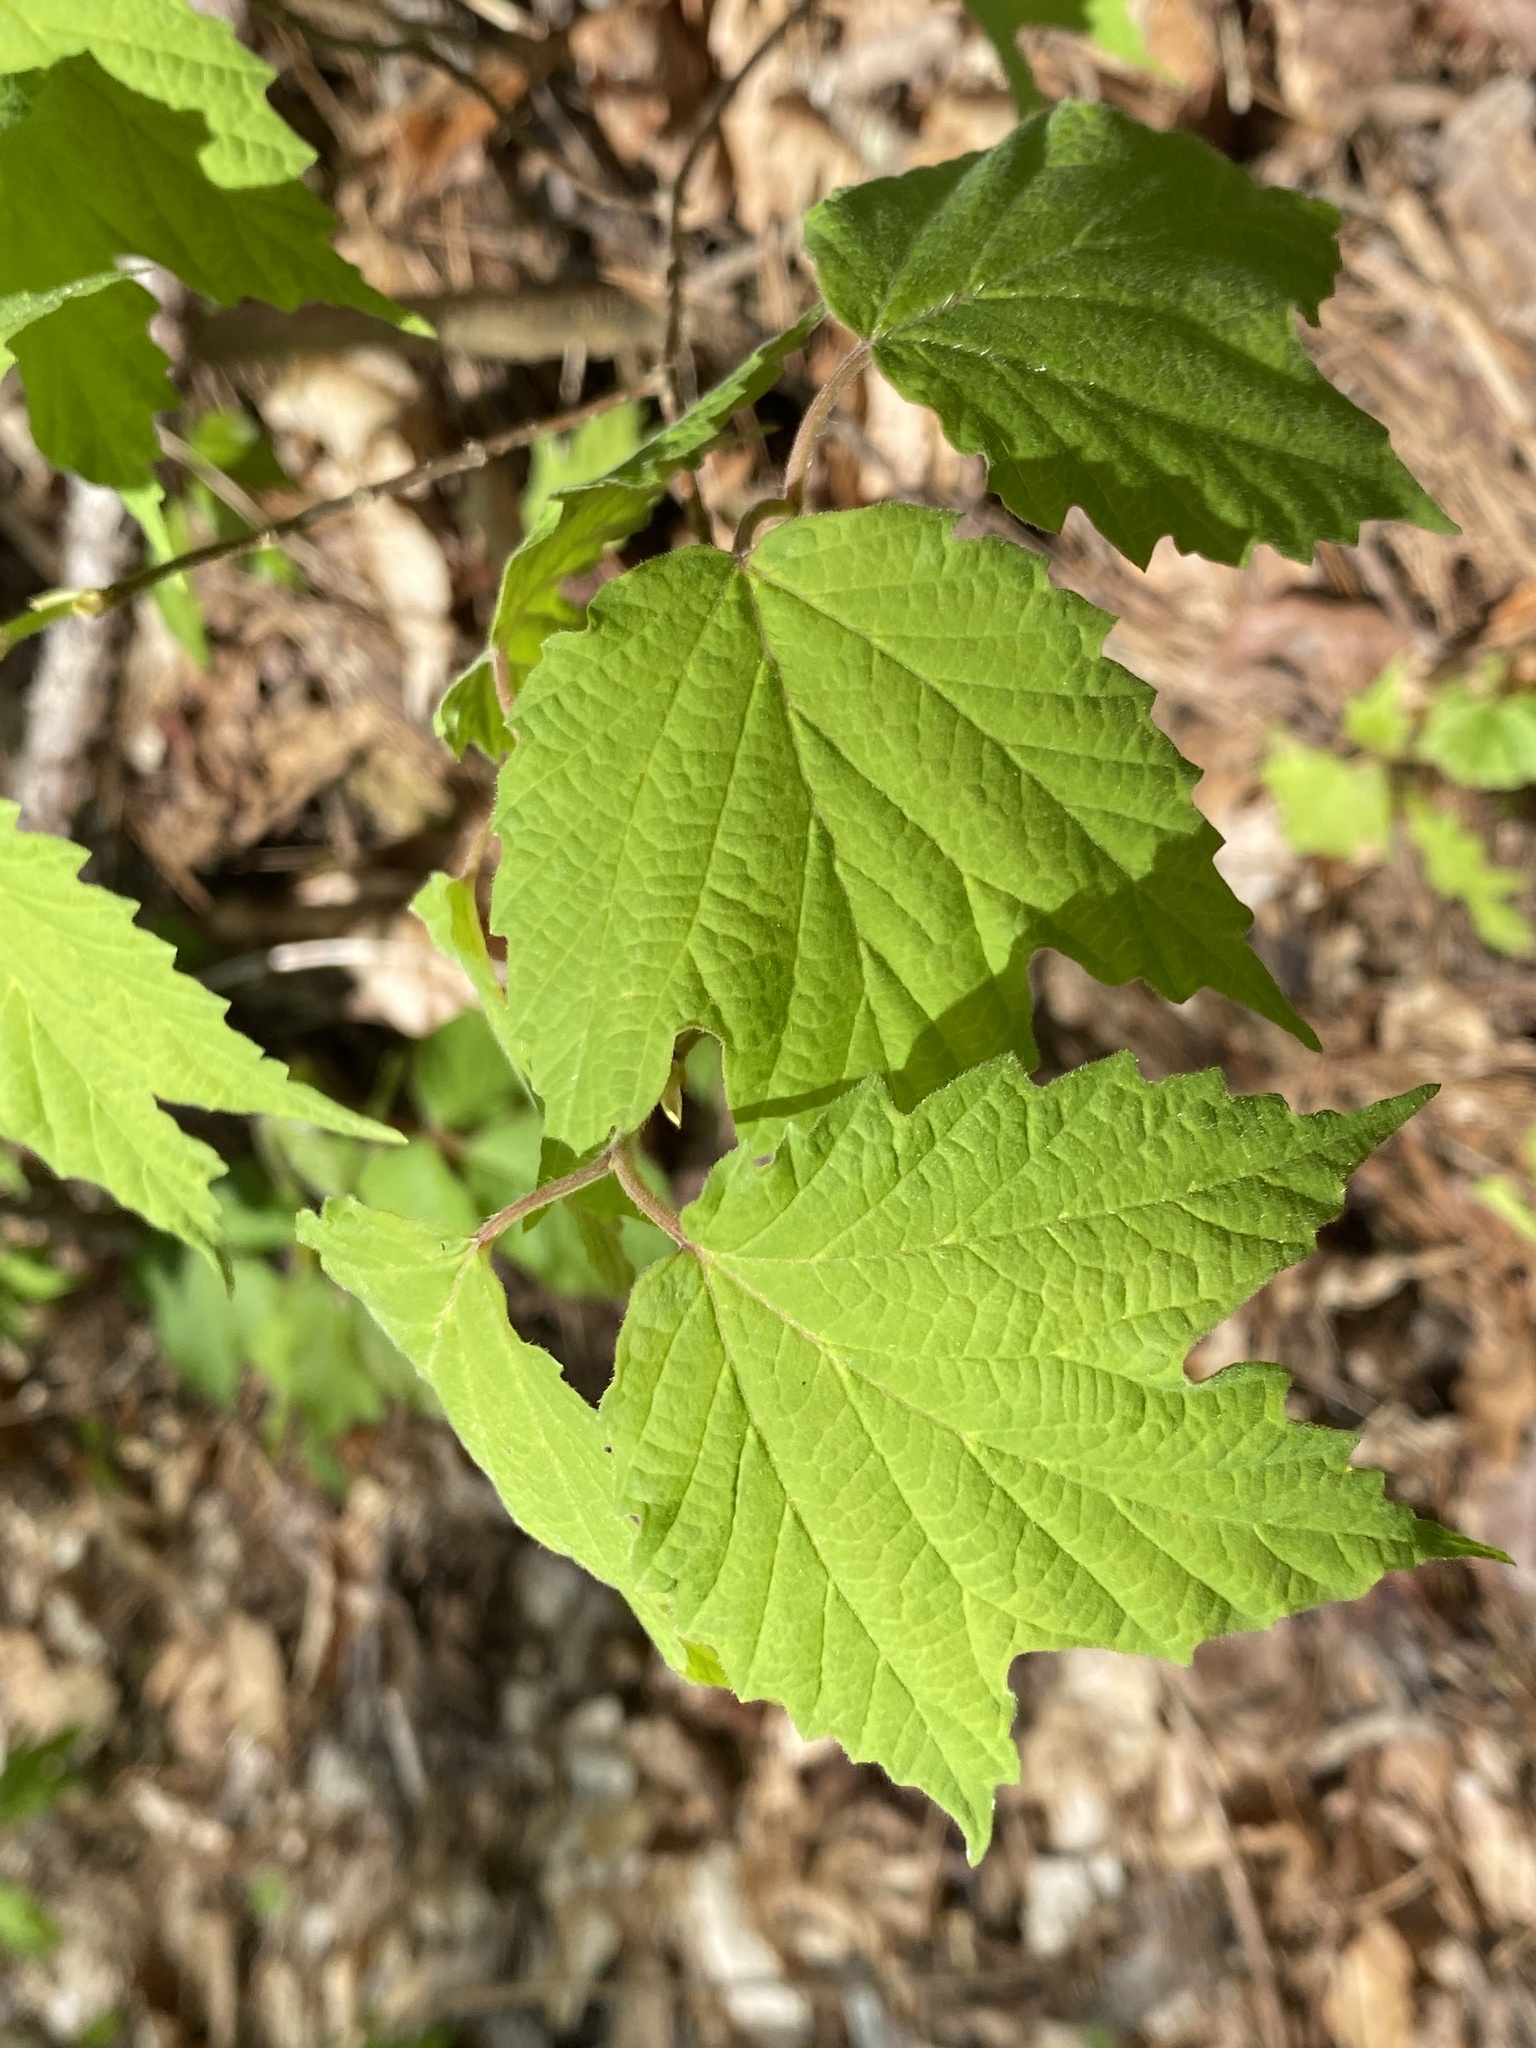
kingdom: Plantae
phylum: Tracheophyta
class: Magnoliopsida
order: Dipsacales
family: Viburnaceae
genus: Viburnum
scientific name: Viburnum acerifolium
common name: Dockmackie
